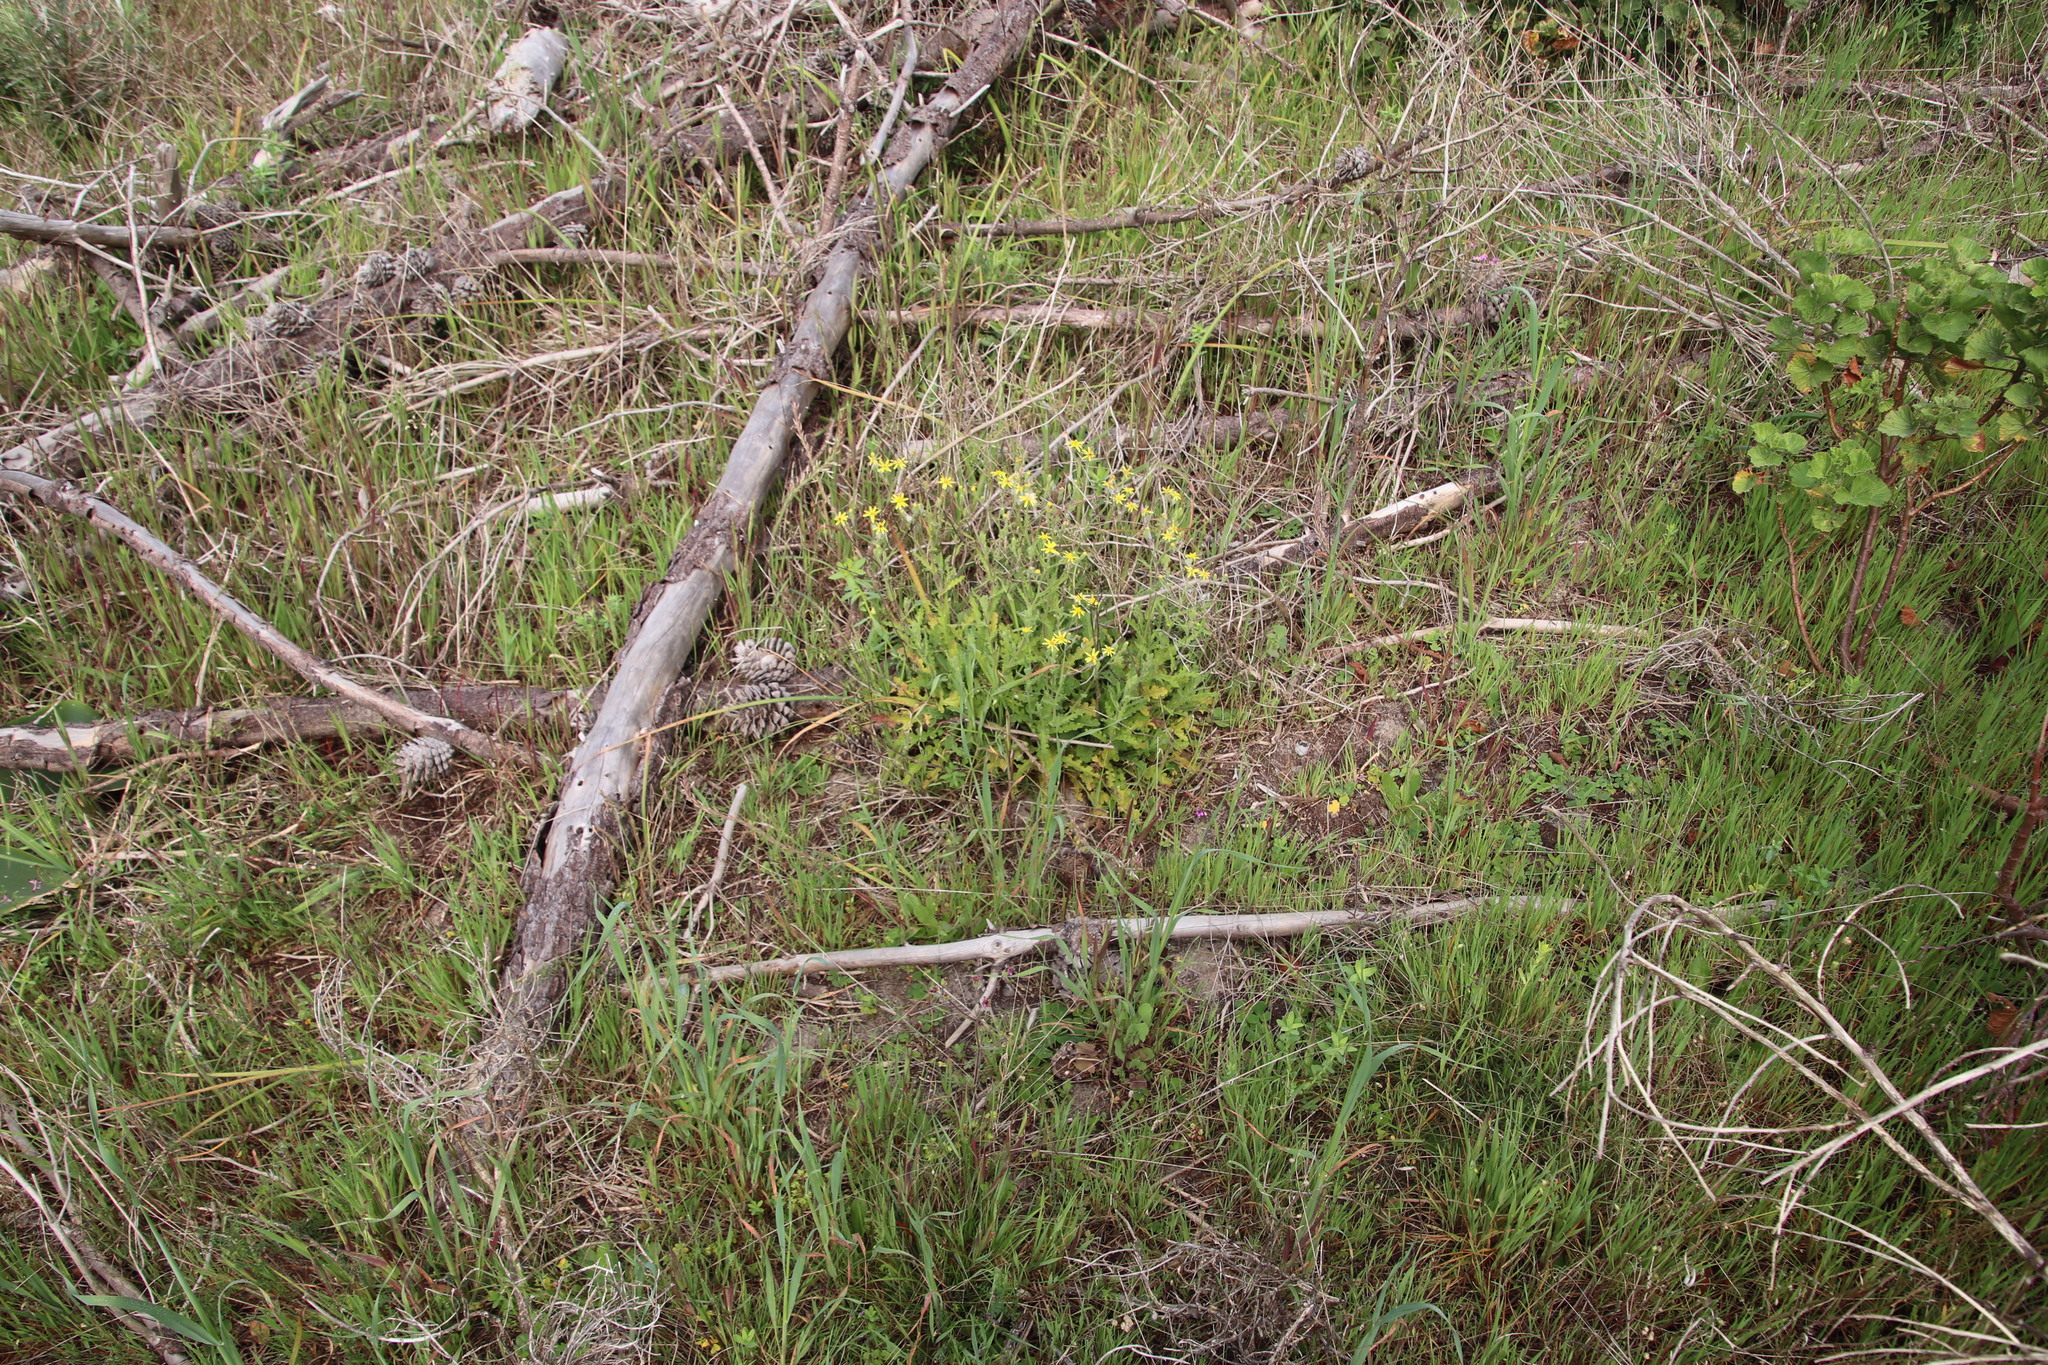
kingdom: Plantae
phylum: Tracheophyta
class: Magnoliopsida
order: Asterales
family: Asteraceae
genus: Senecio
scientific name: Senecio hastatus
